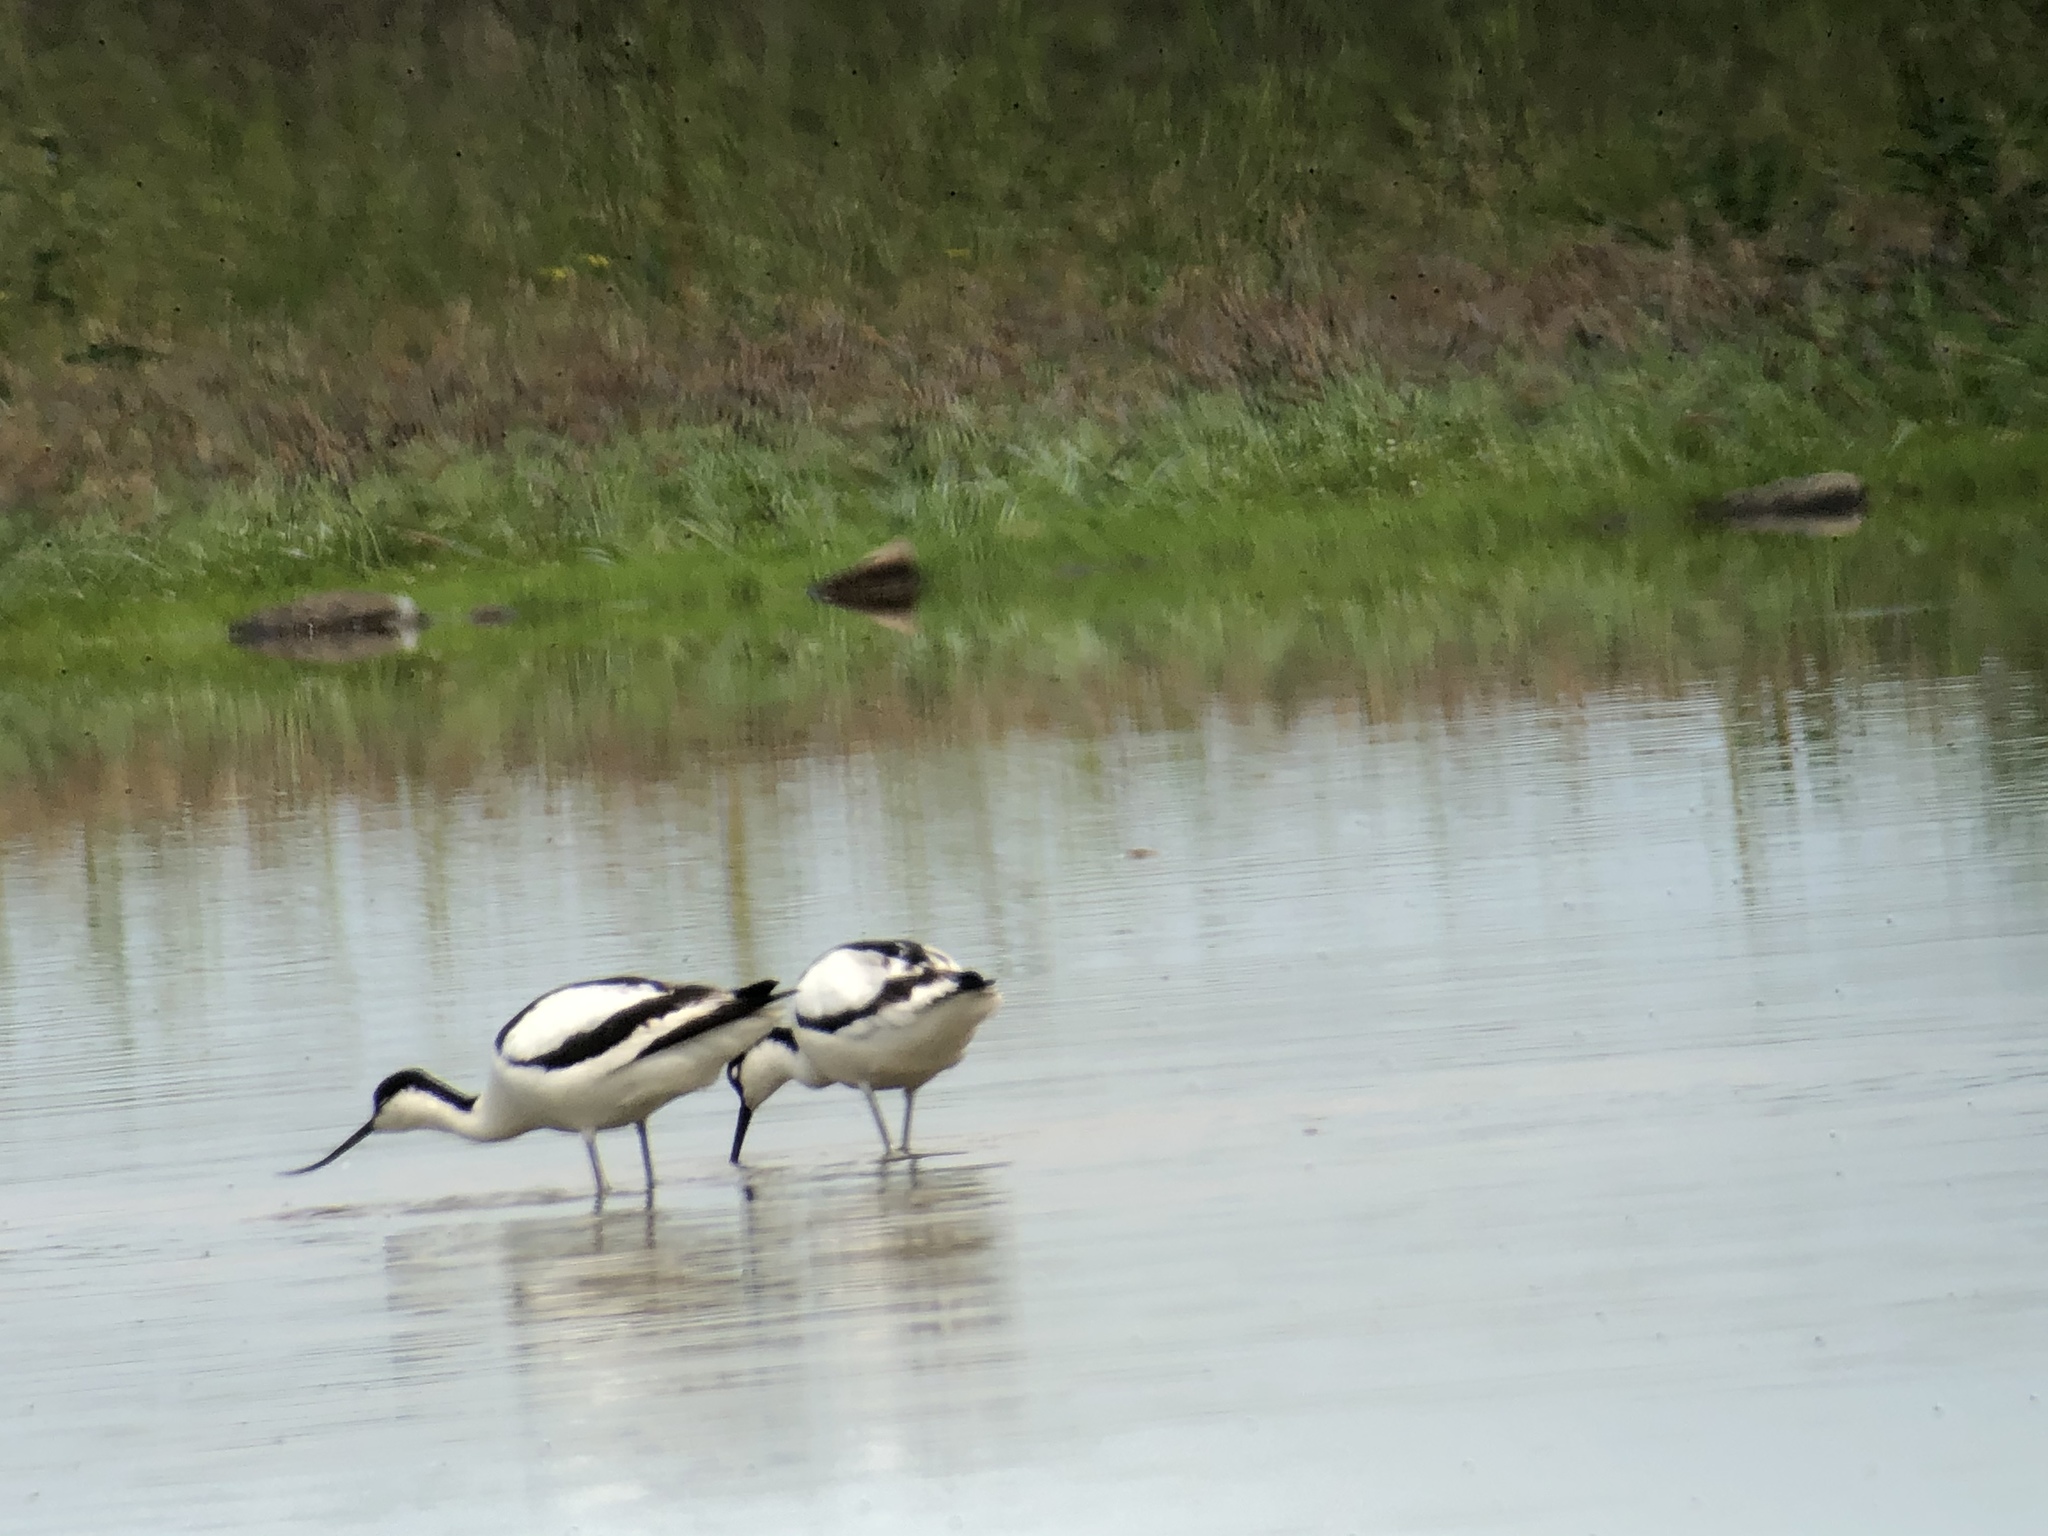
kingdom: Animalia
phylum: Chordata
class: Aves
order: Charadriiformes
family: Recurvirostridae
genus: Recurvirostra
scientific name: Recurvirostra avosetta
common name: Pied avocet
